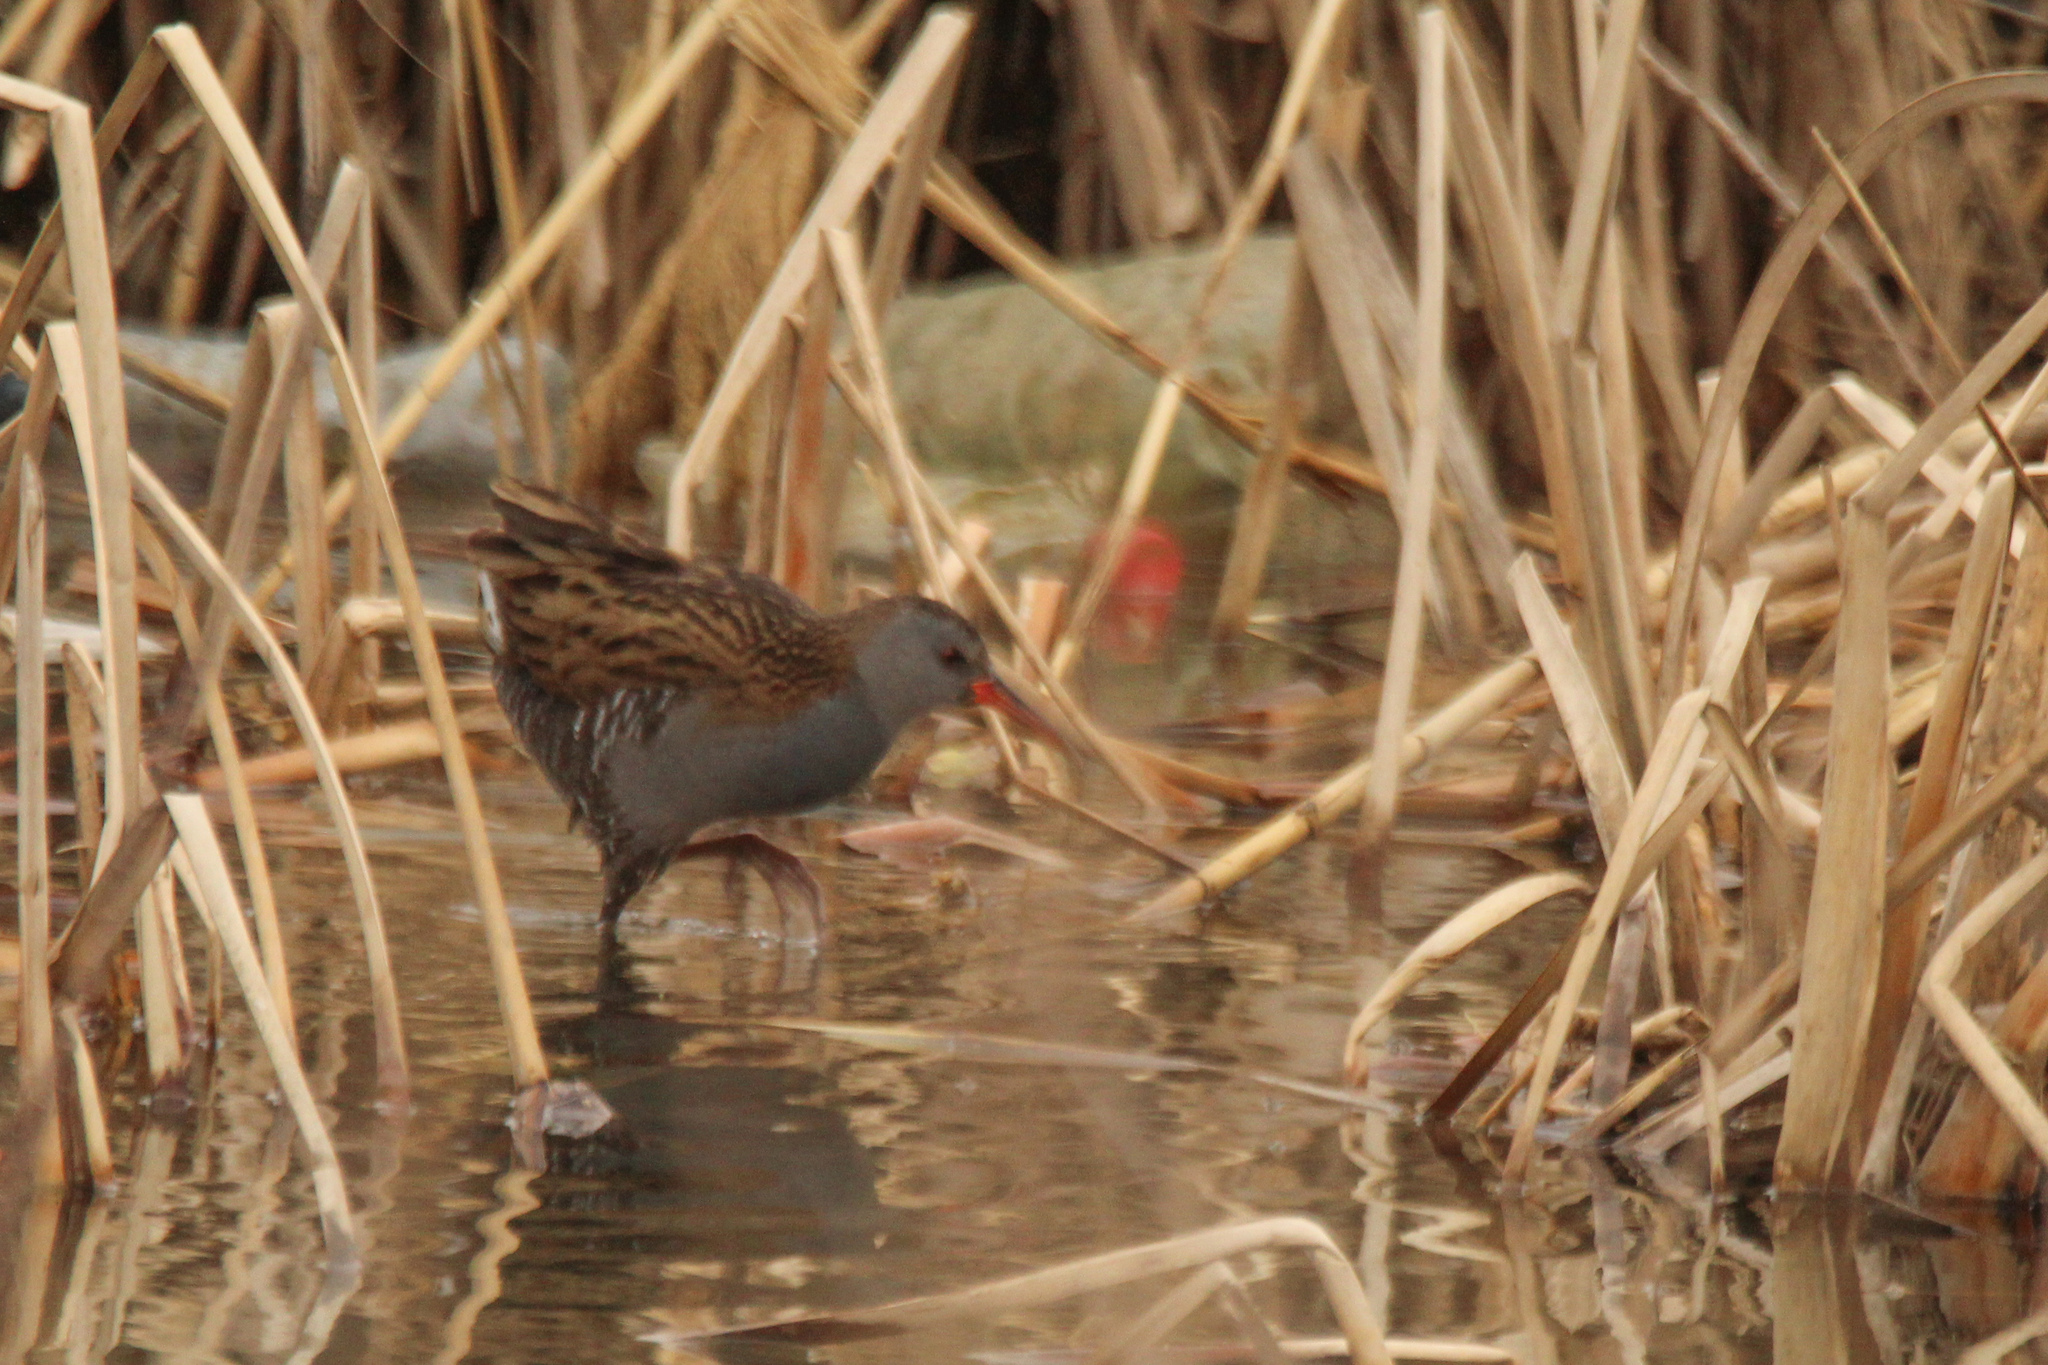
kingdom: Animalia
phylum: Chordata
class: Aves
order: Gruiformes
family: Rallidae
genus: Rallus
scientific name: Rallus aquaticus
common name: Water rail
